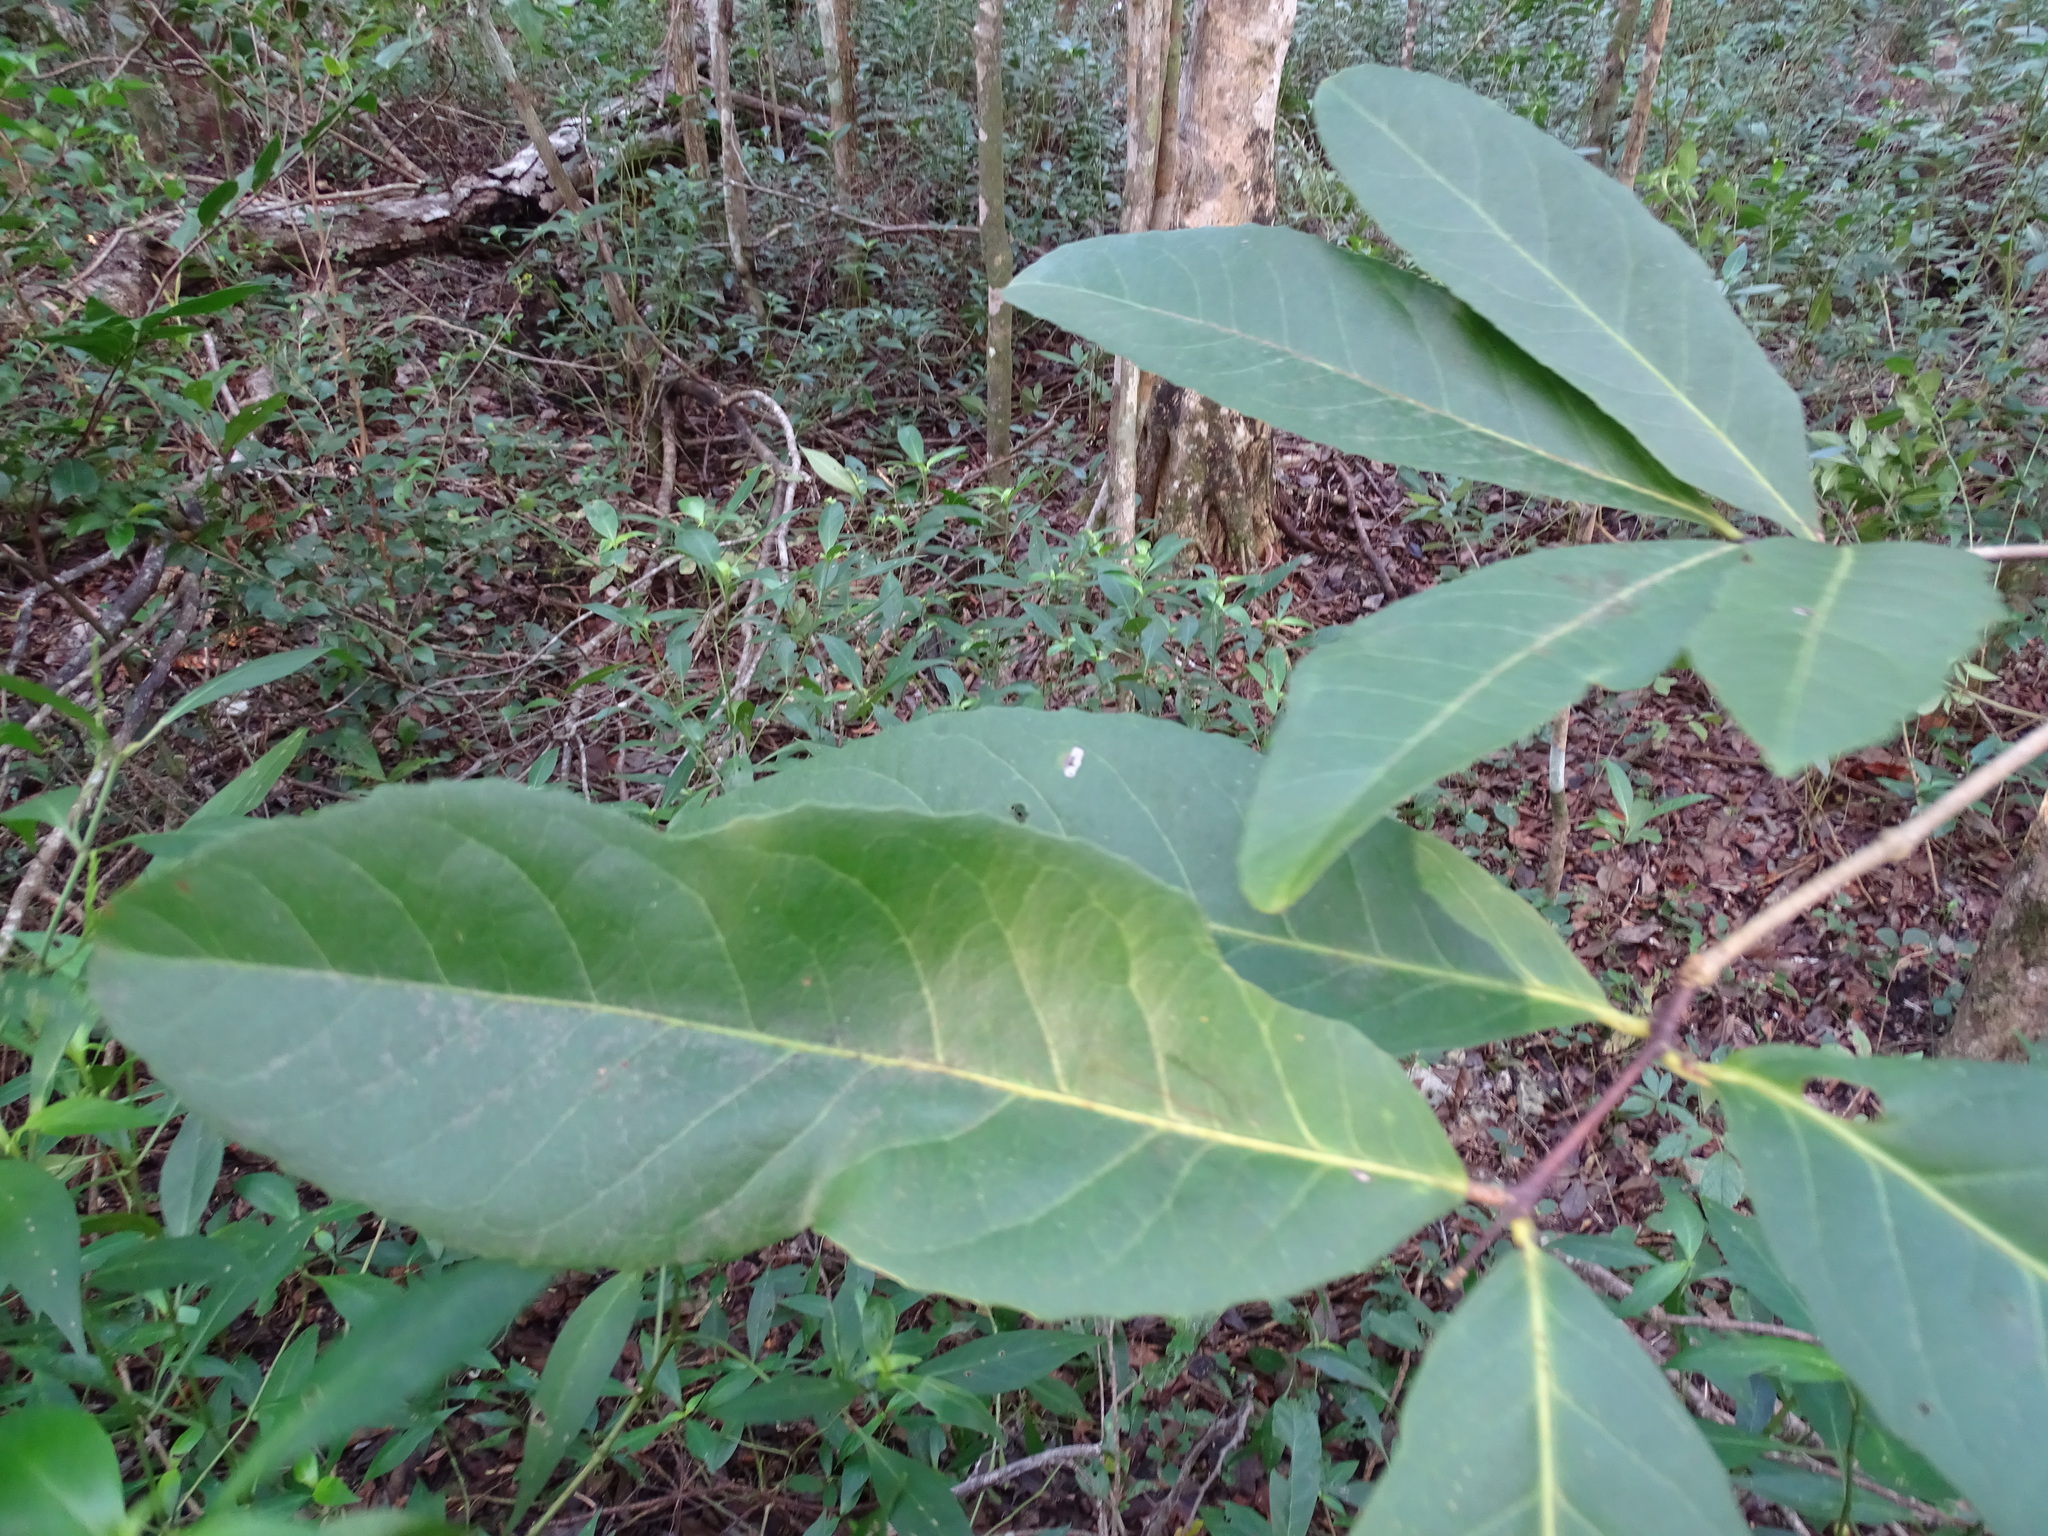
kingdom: Plantae
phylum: Tracheophyta
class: Magnoliopsida
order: Celastrales
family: Celastraceae
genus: Semialarium
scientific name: Semialarium mexicanum
